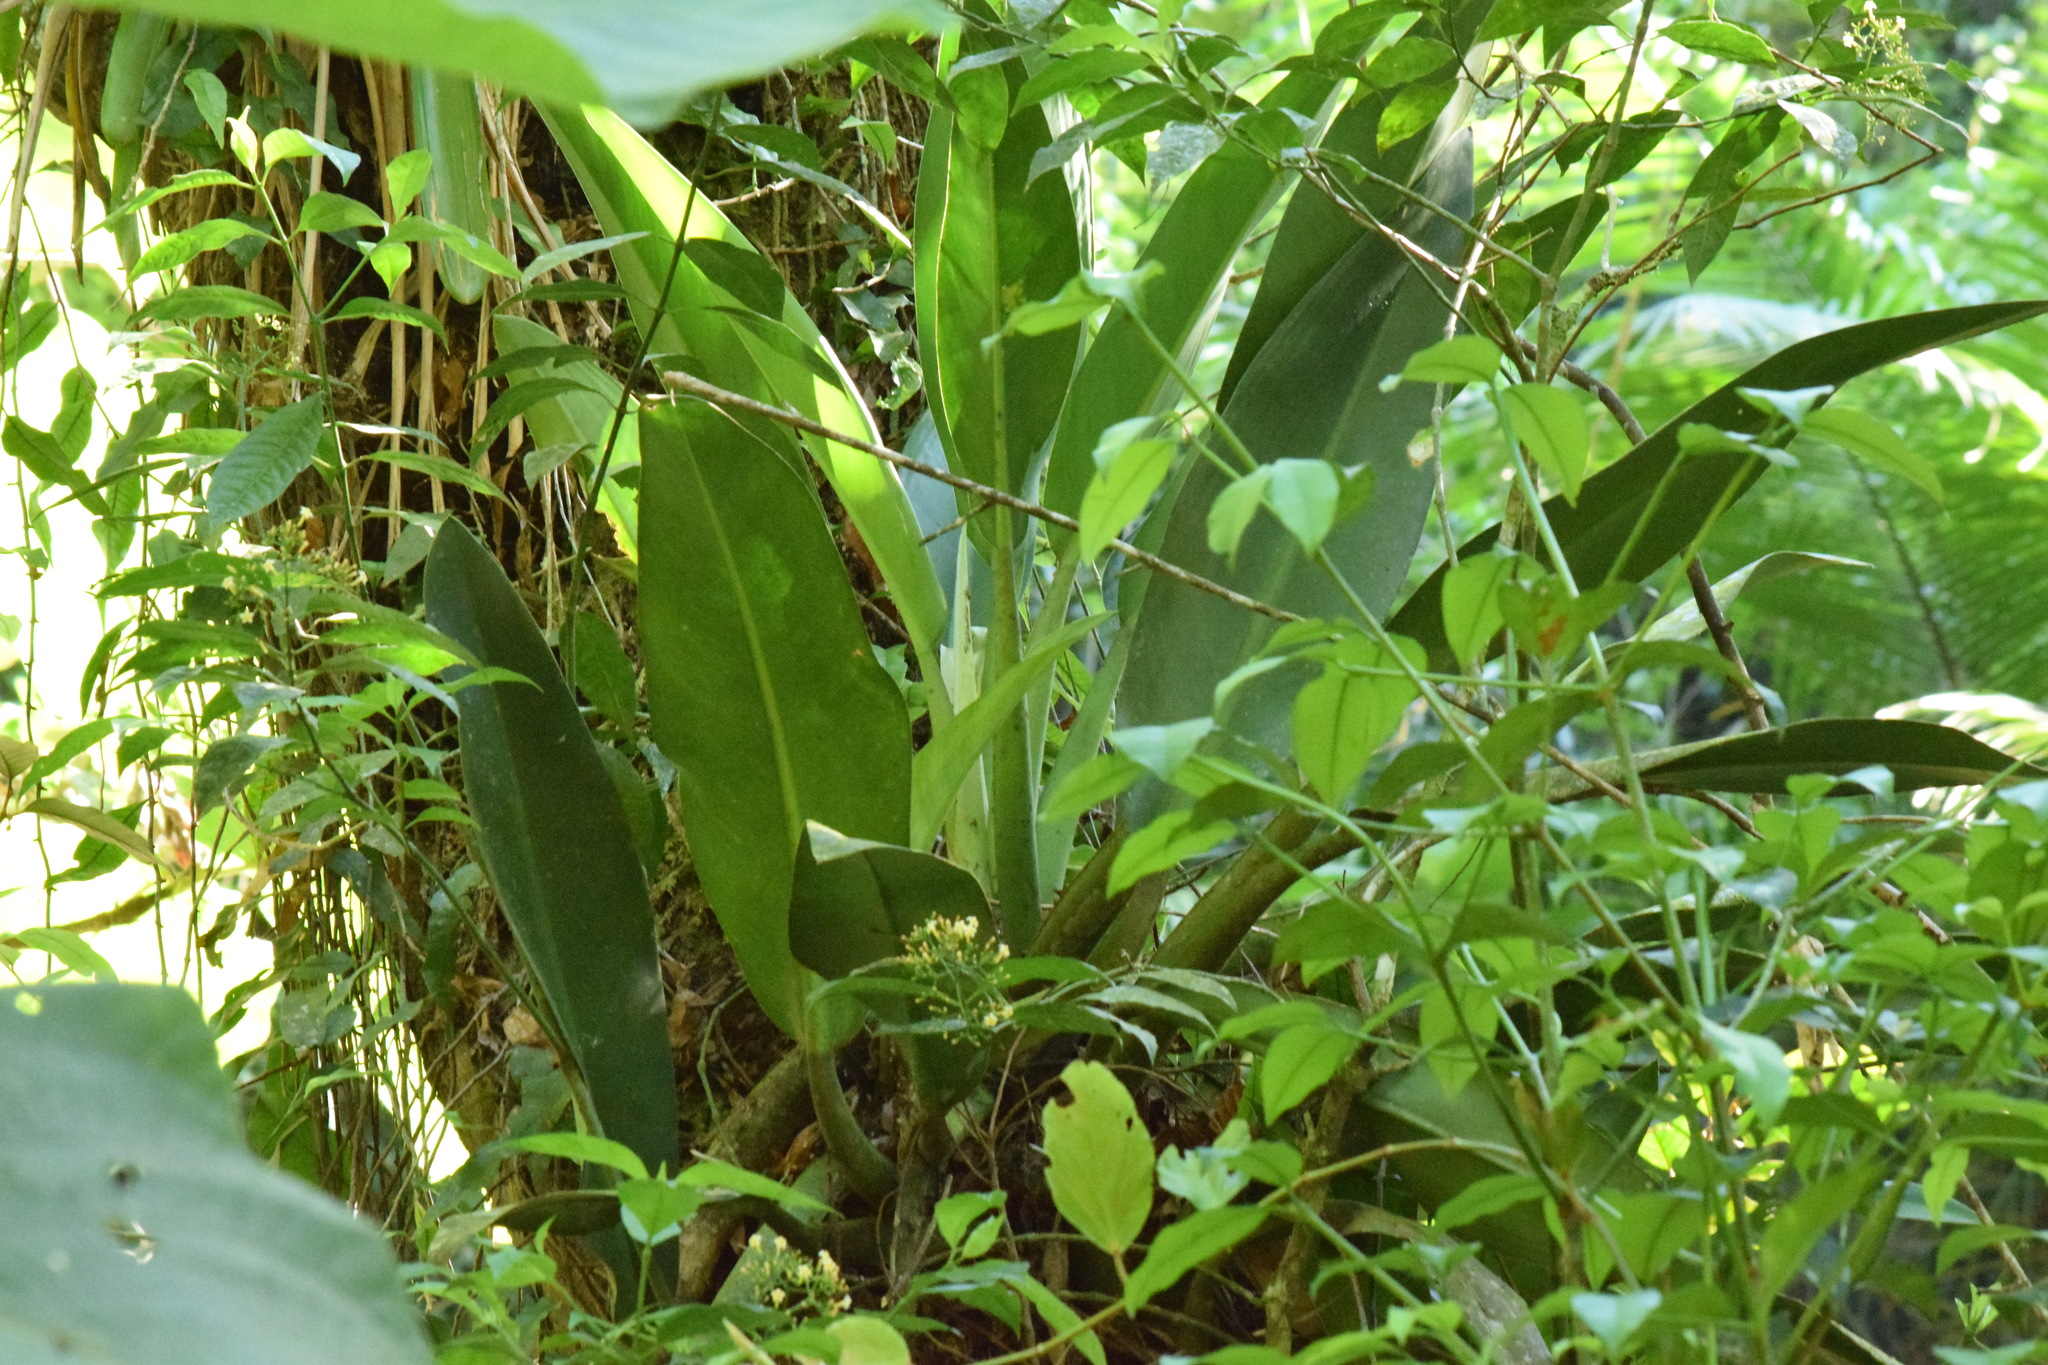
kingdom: Plantae
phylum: Tracheophyta
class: Liliopsida
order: Alismatales
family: Araceae
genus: Philodendron
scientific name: Philodendron martianum
